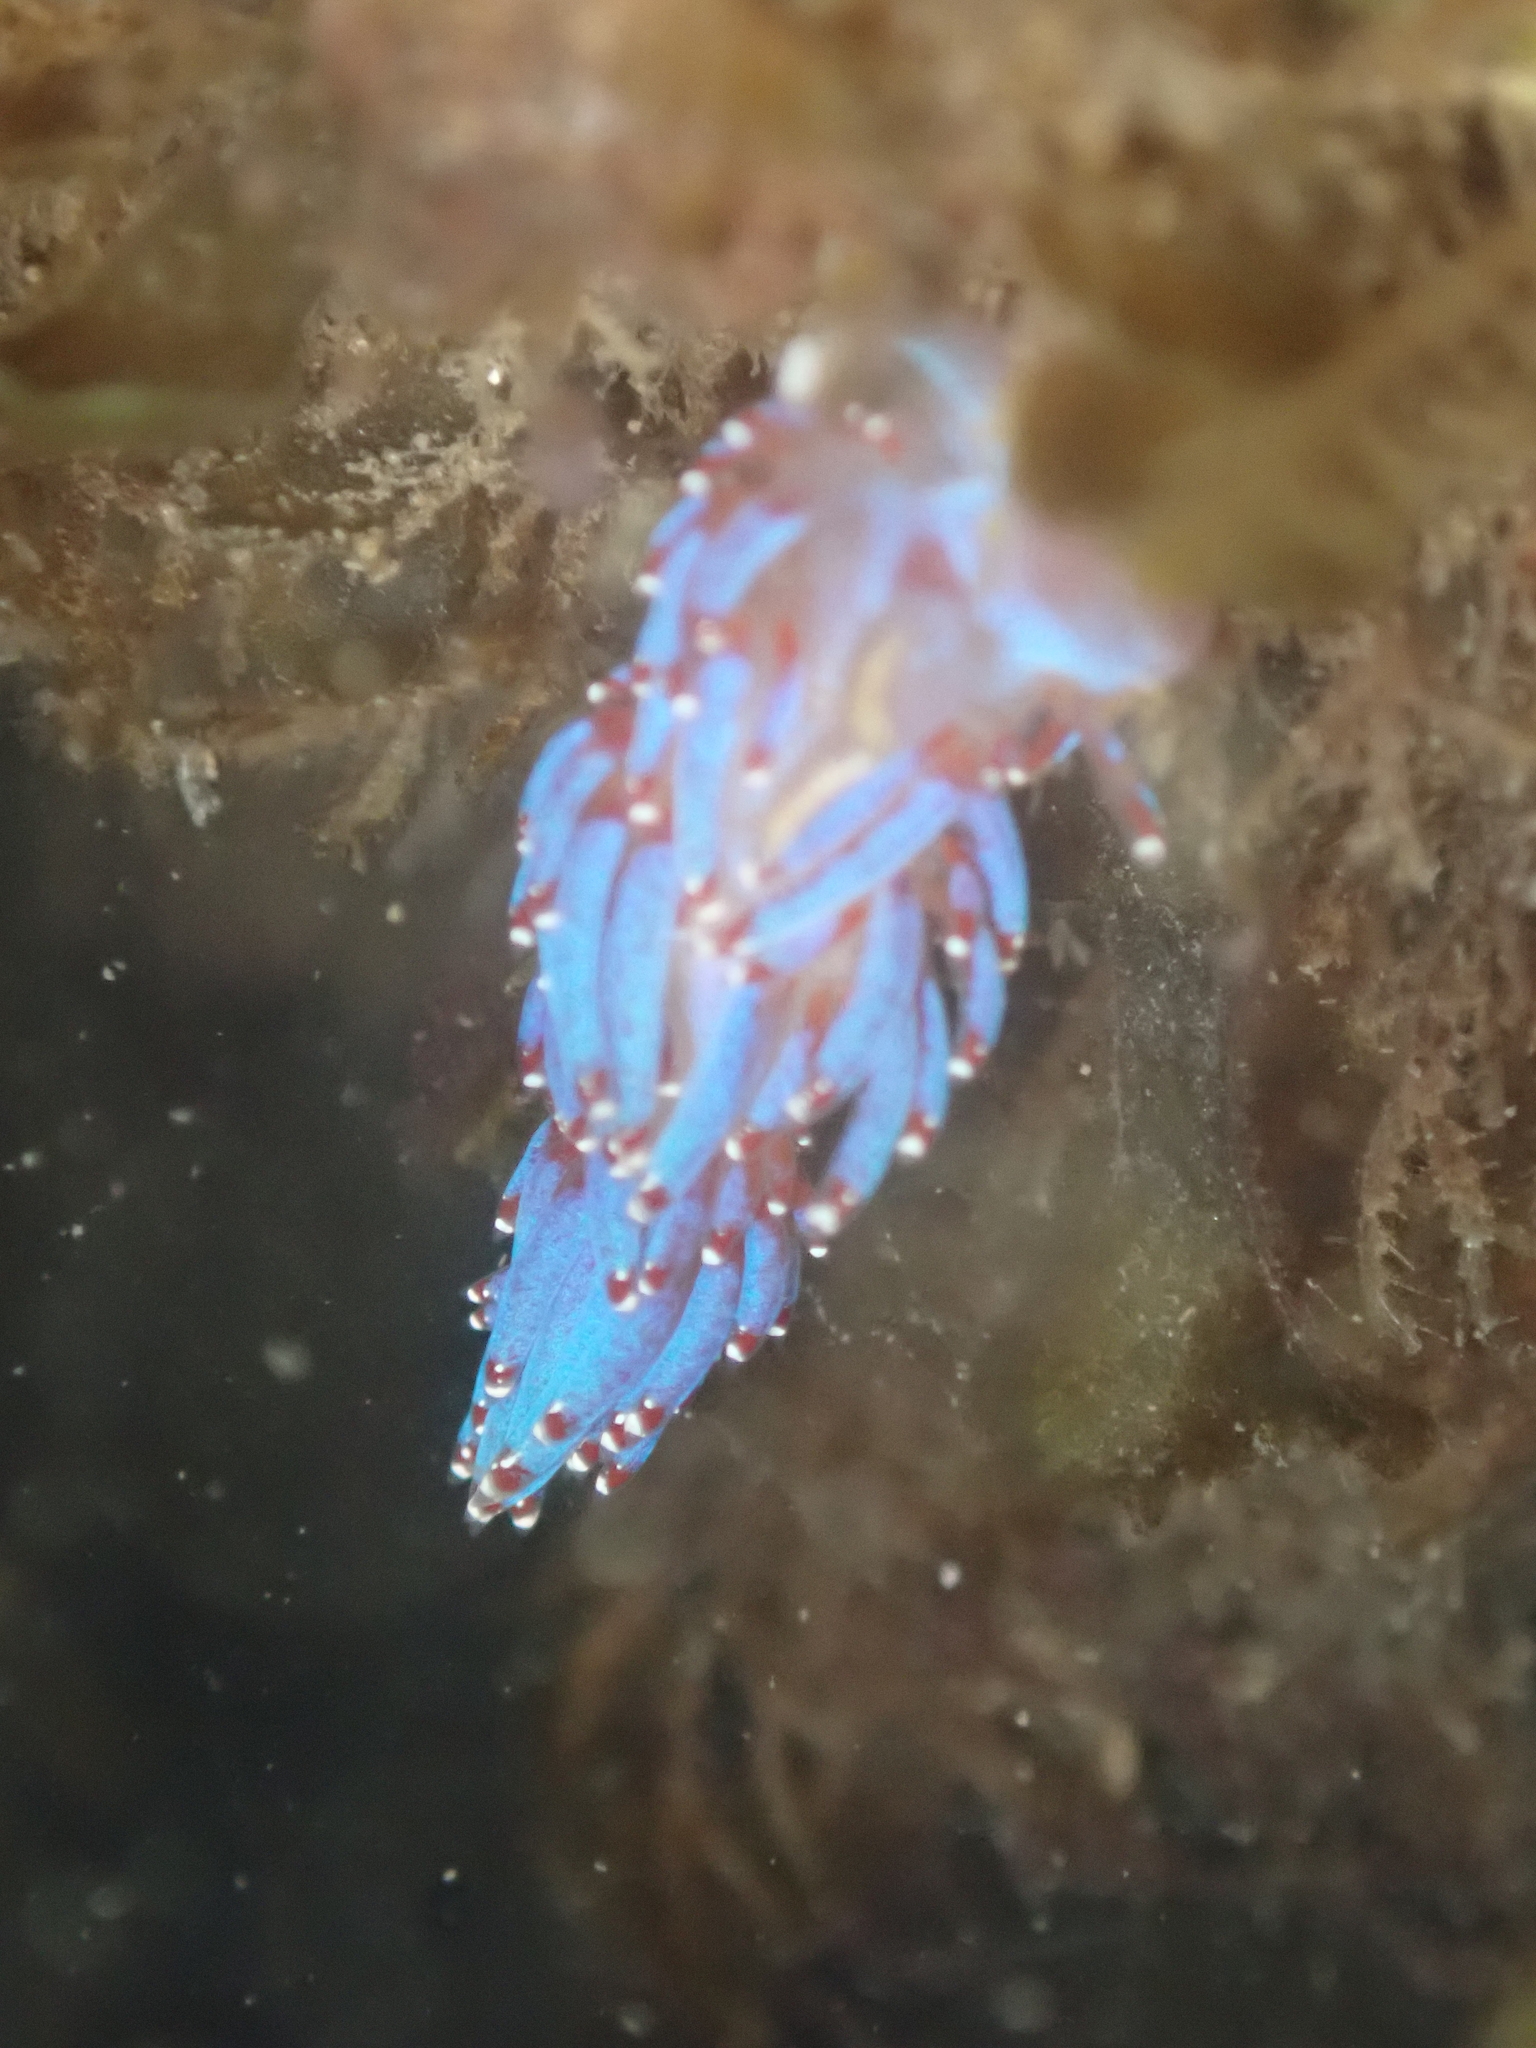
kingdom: Animalia
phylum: Mollusca
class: Gastropoda
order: Nudibranchia
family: Facelinidae
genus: Facelina
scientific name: Facelina auriculata
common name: Slender facelina
